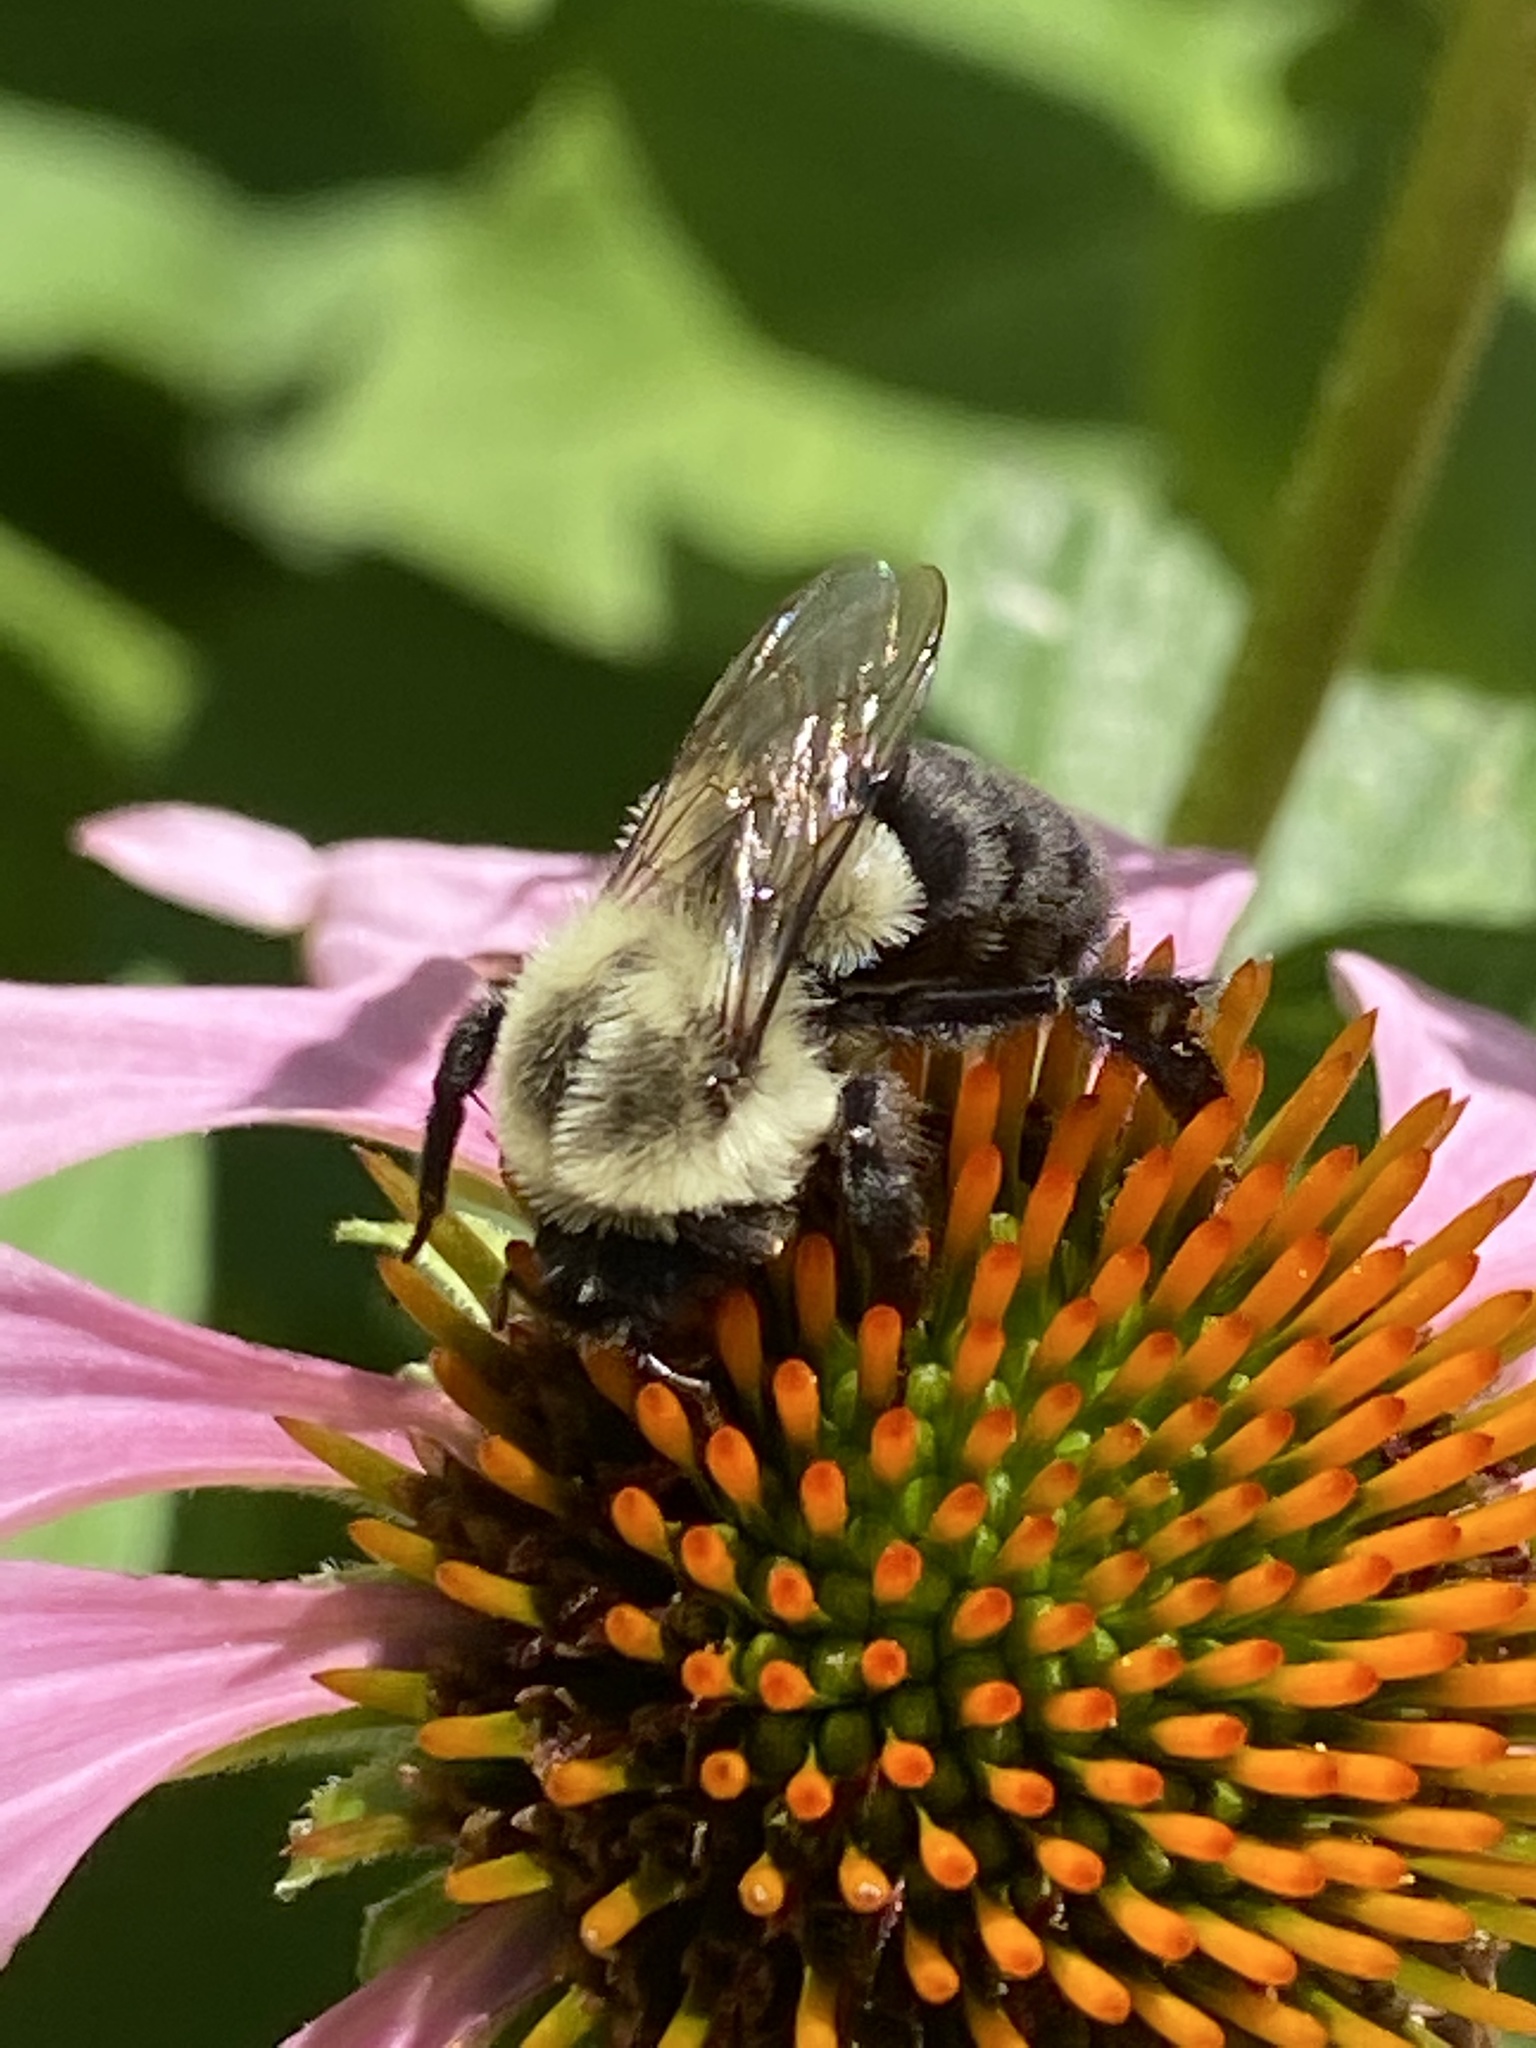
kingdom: Animalia
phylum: Arthropoda
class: Insecta
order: Hymenoptera
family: Apidae
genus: Bombus
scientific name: Bombus impatiens
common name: Common eastern bumble bee
